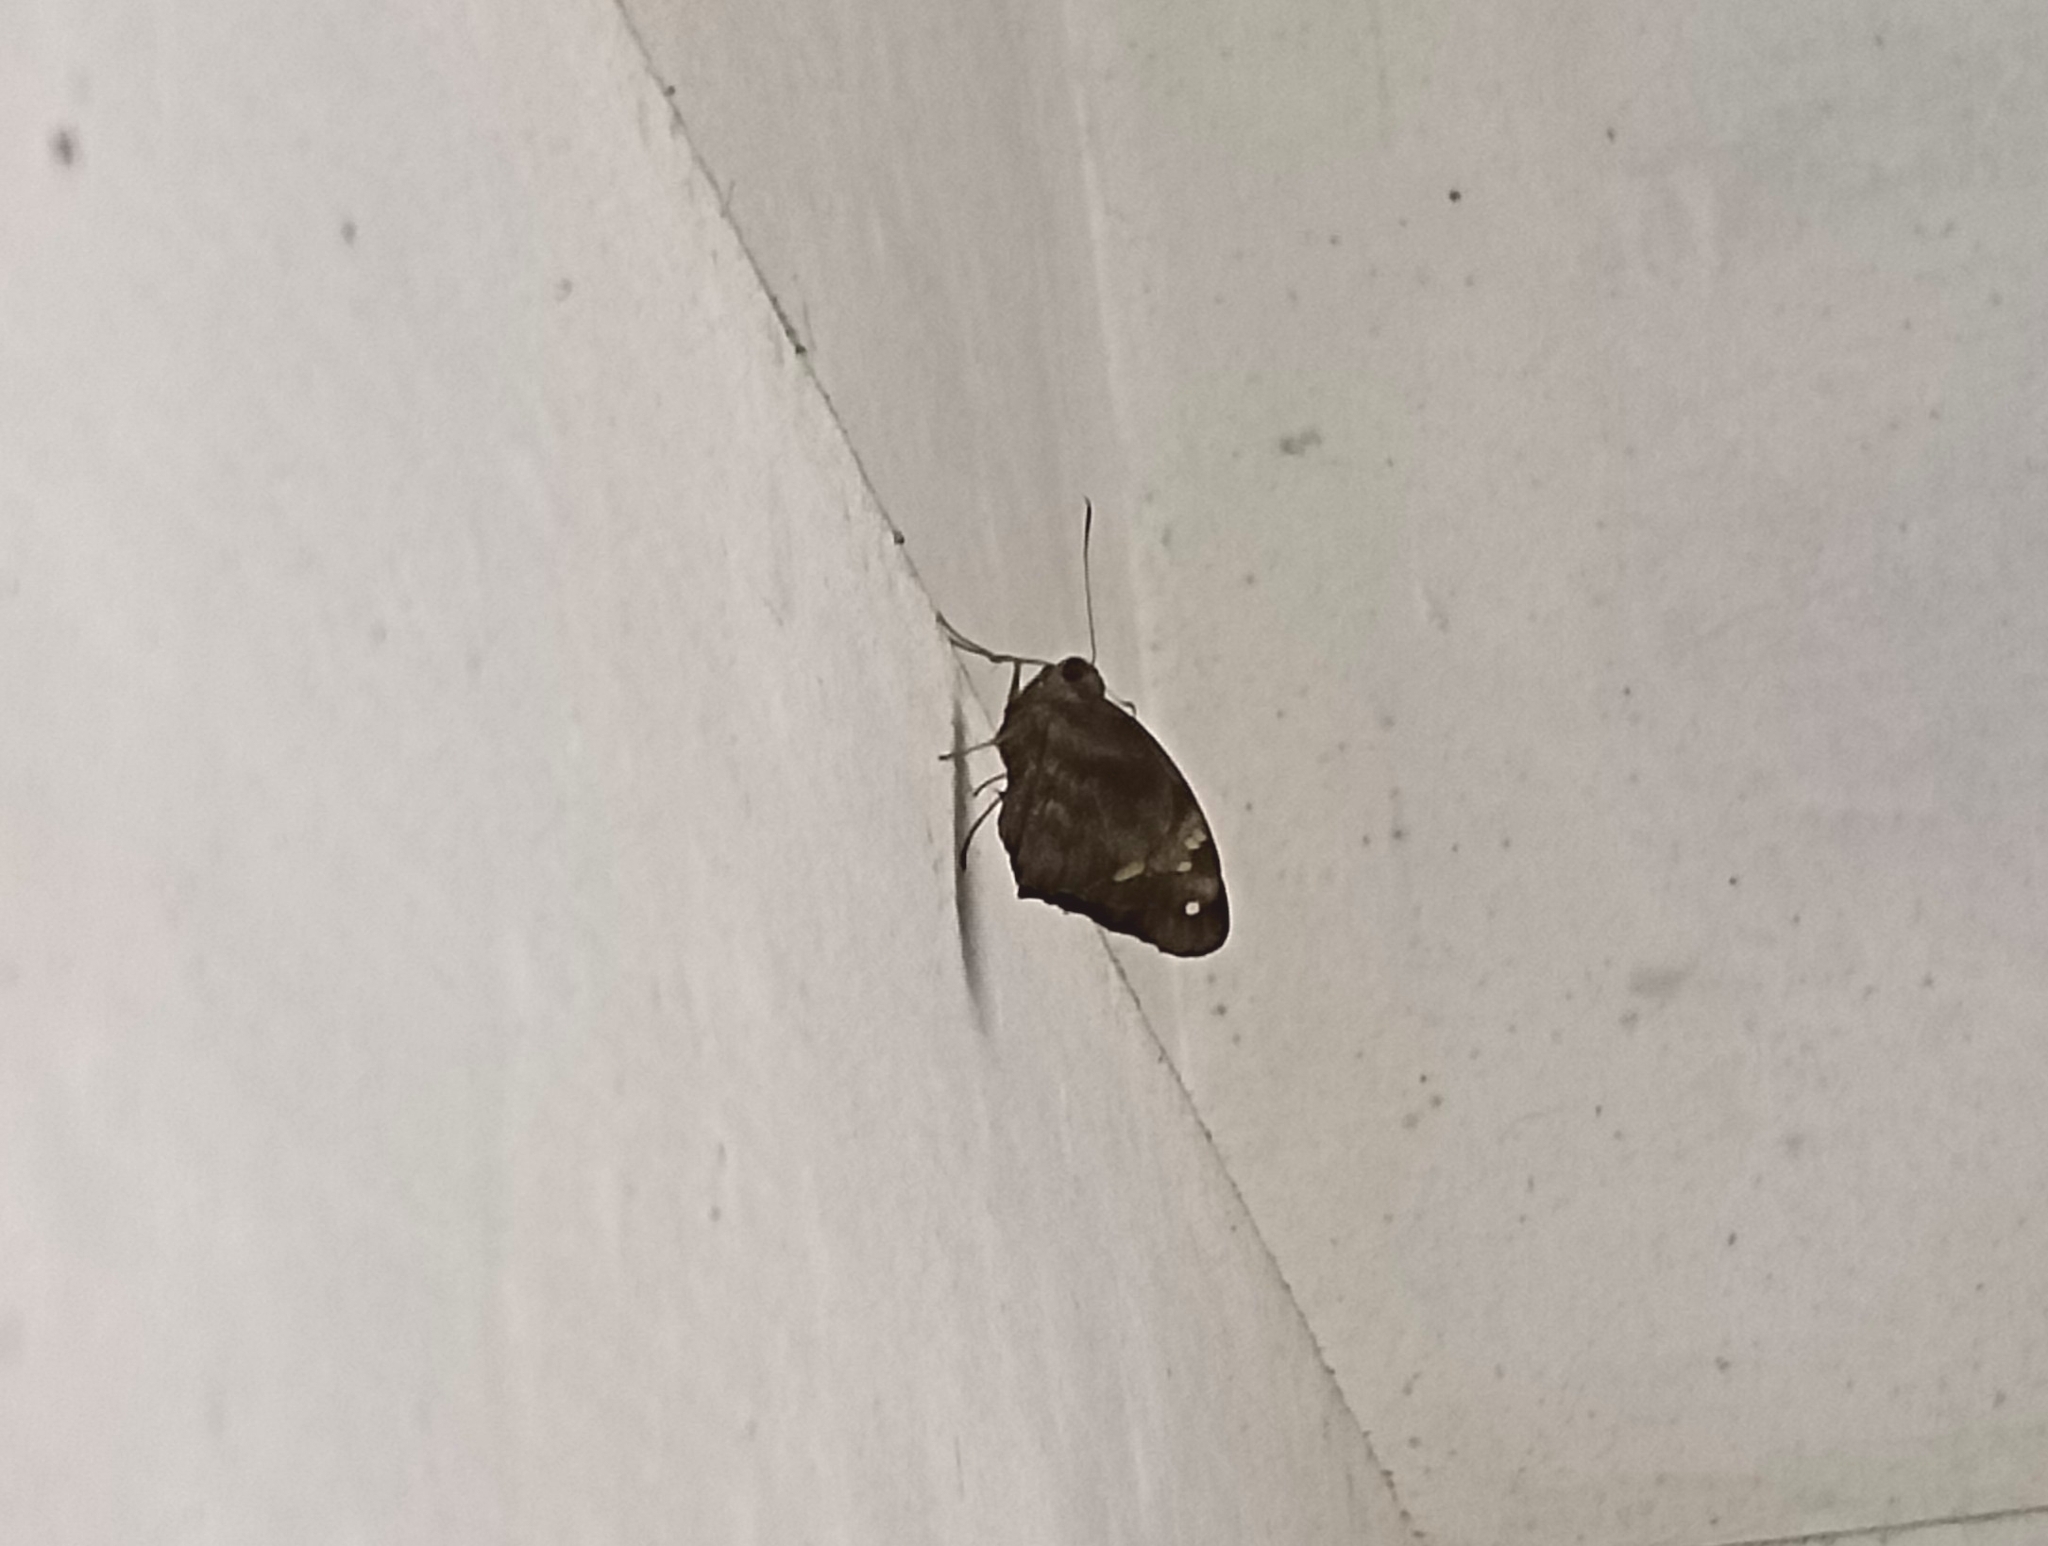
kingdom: Animalia
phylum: Arthropoda
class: Insecta
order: Lepidoptera
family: Hesperiidae
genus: Gangara
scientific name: Gangara thyrsis
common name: Giant redeye
